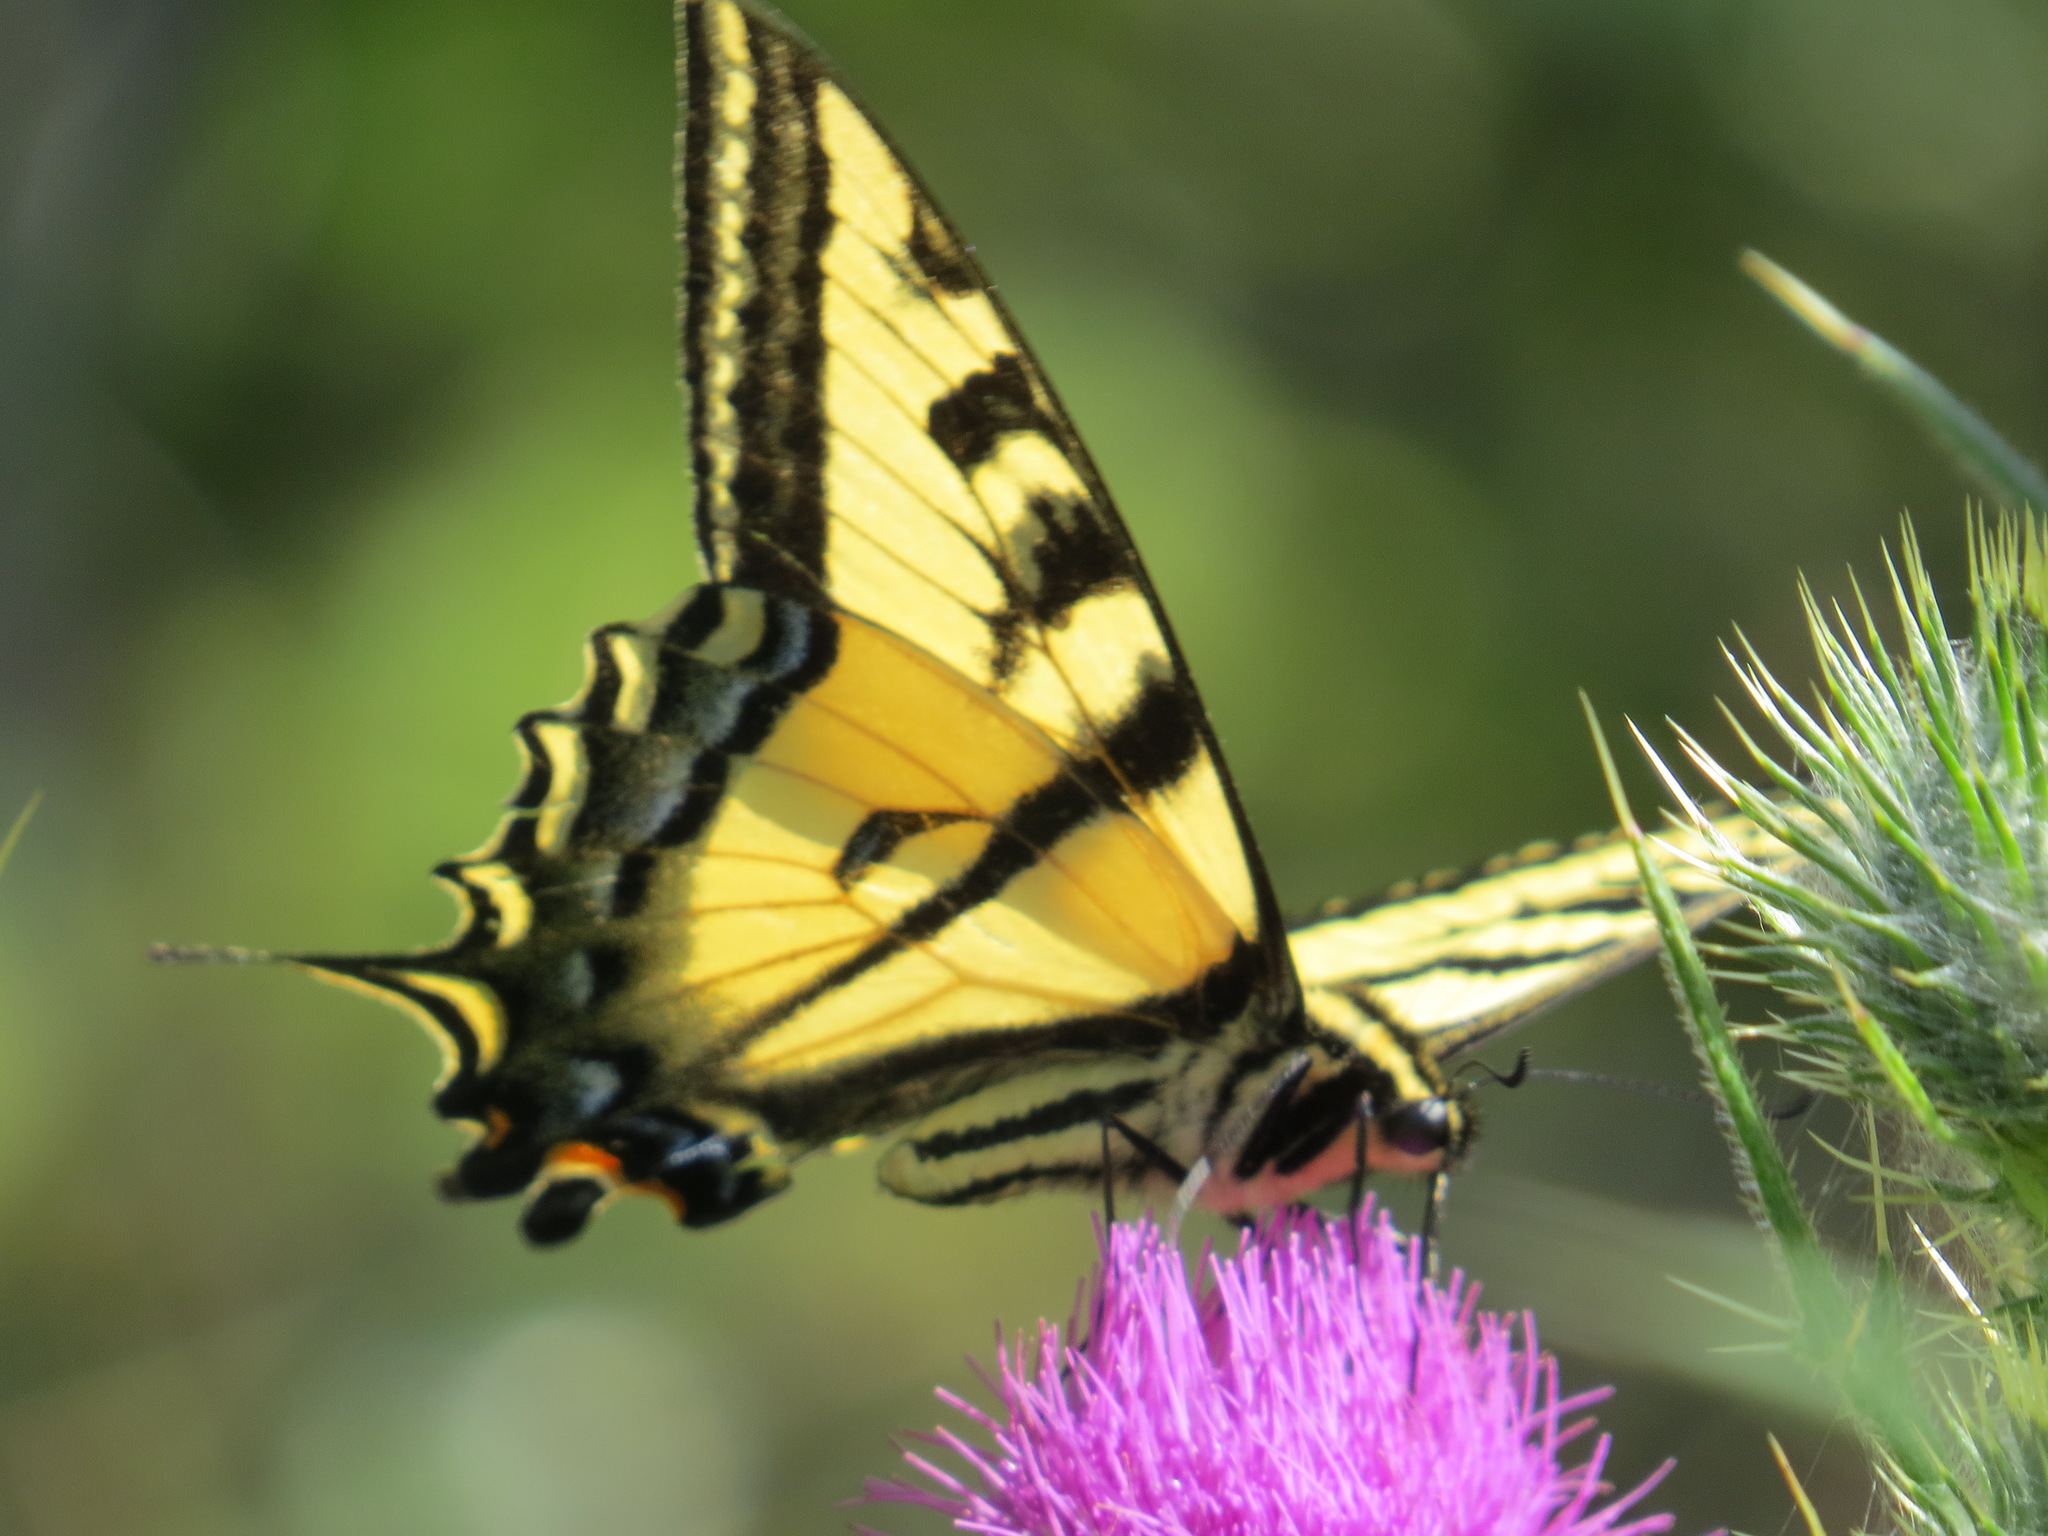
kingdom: Animalia
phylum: Arthropoda
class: Insecta
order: Lepidoptera
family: Papilionidae
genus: Papilio
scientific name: Papilio rutulus
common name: Western tiger swallowtail
